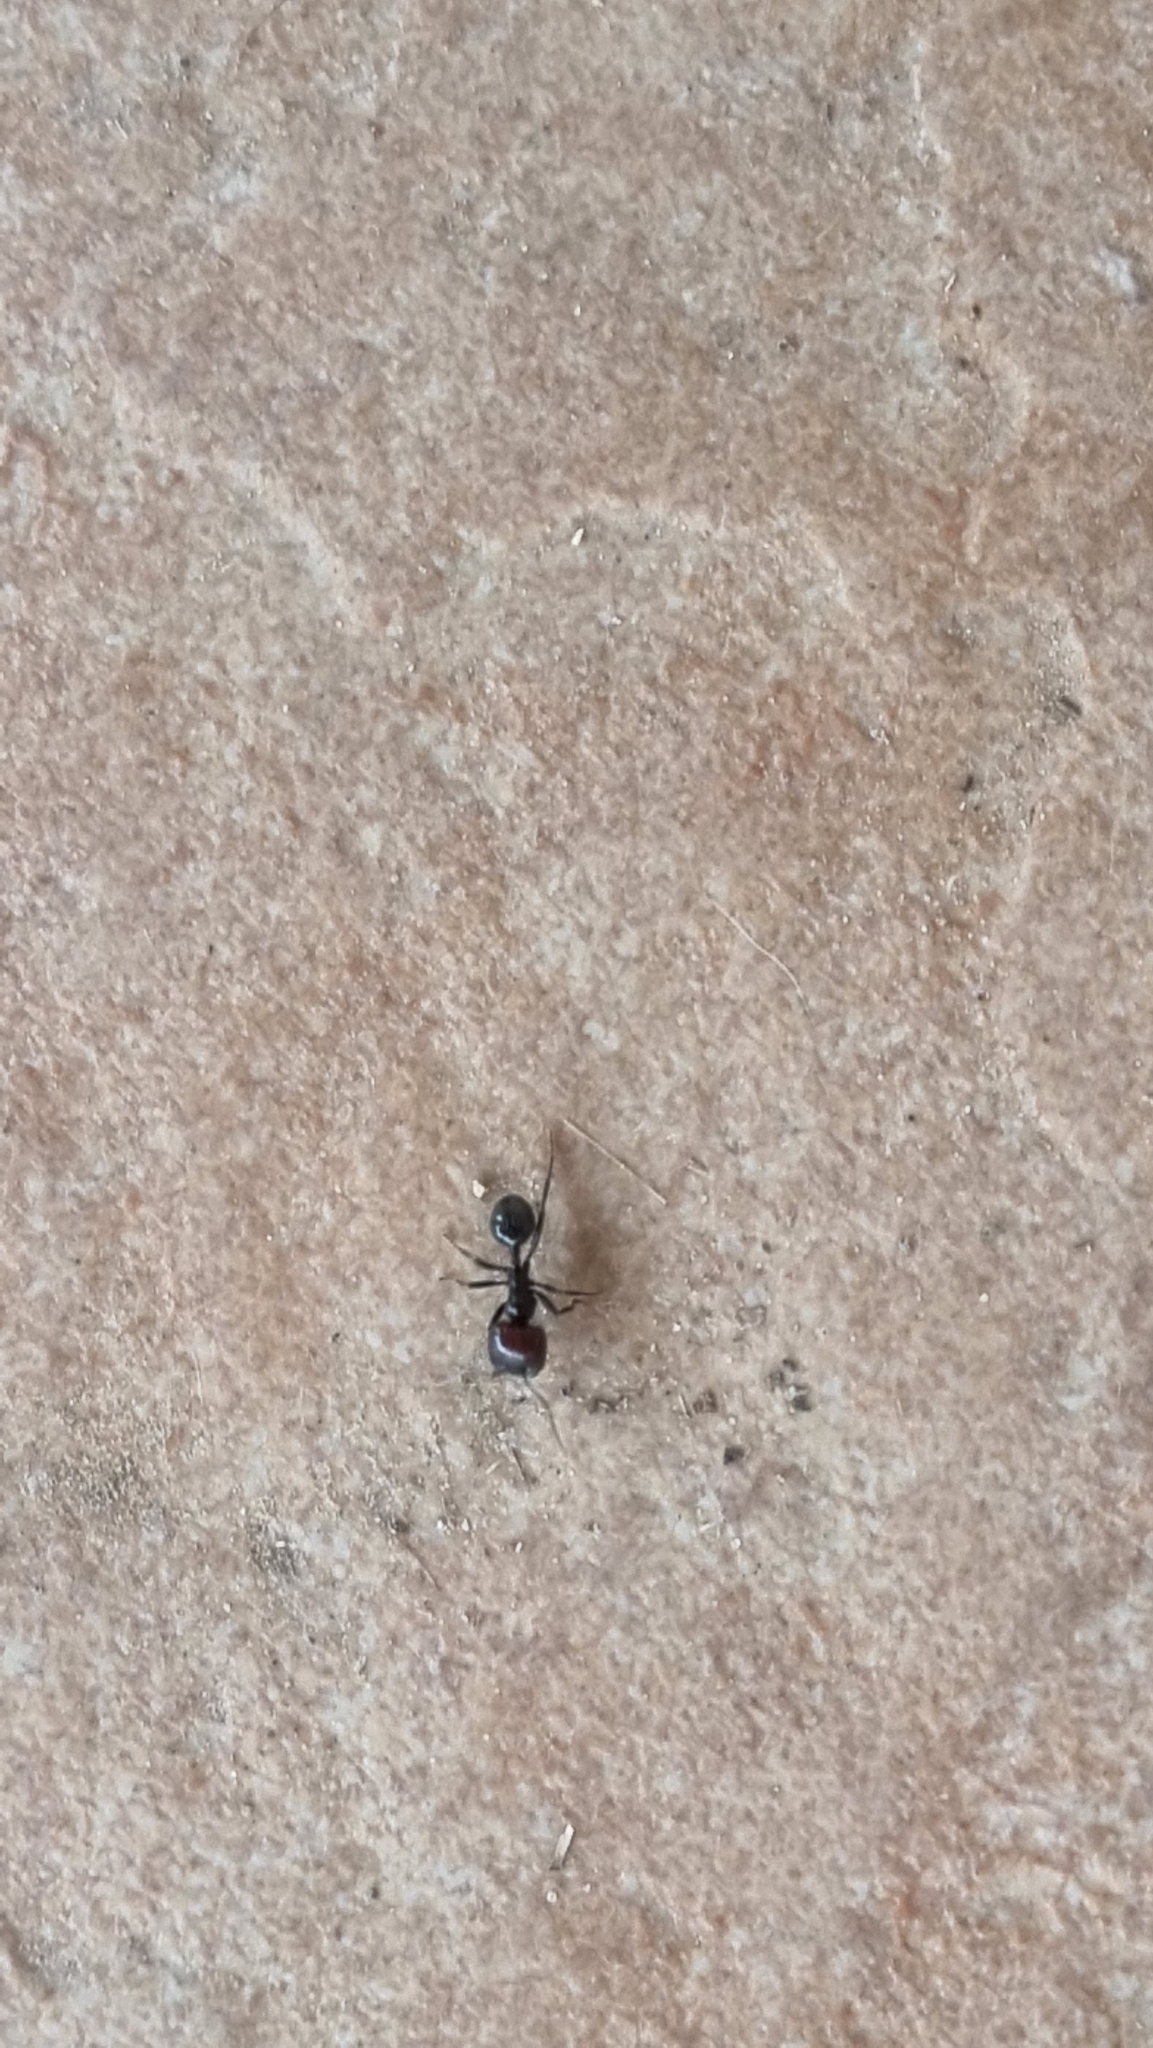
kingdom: Animalia
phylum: Arthropoda
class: Insecta
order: Hymenoptera
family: Formicidae
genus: Messor
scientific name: Messor barbarus
